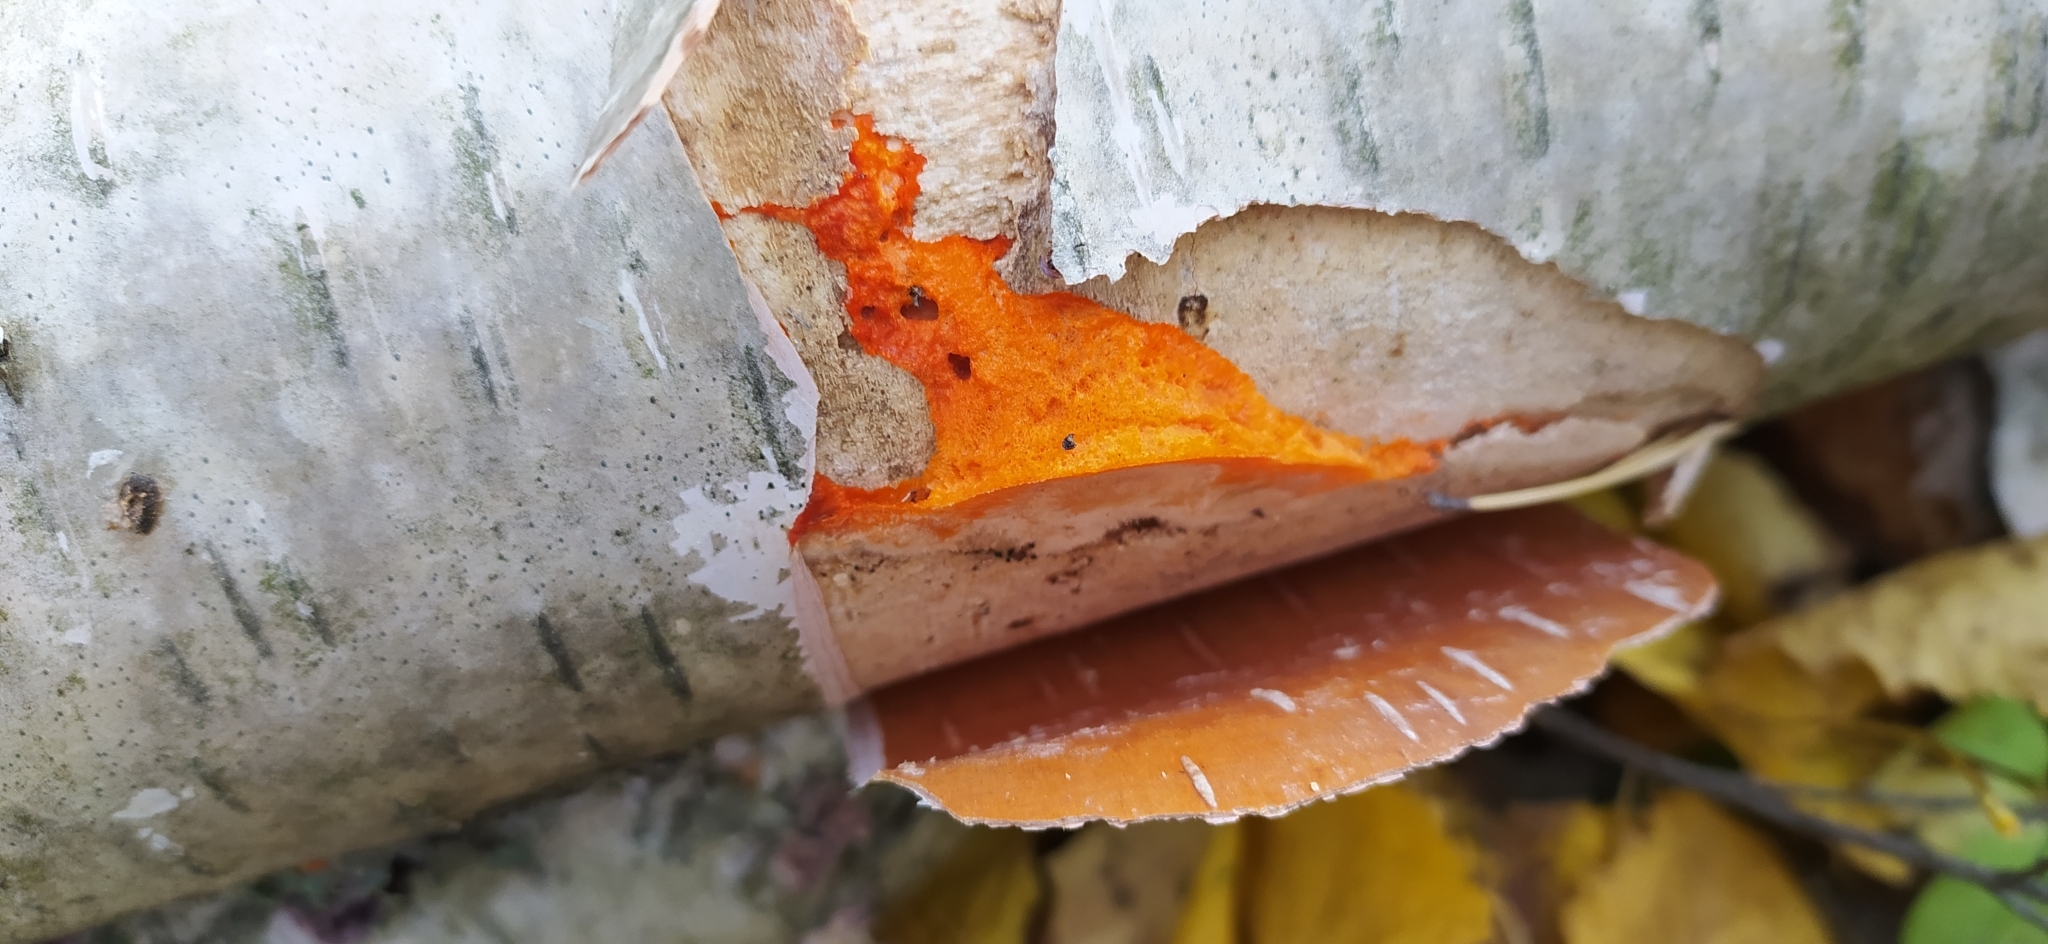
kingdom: Fungi
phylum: Basidiomycota
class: Agaricomycetes
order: Polyporales
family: Meruliaceae
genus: Phlebia
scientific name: Phlebia radiata
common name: Wrinkled crust
